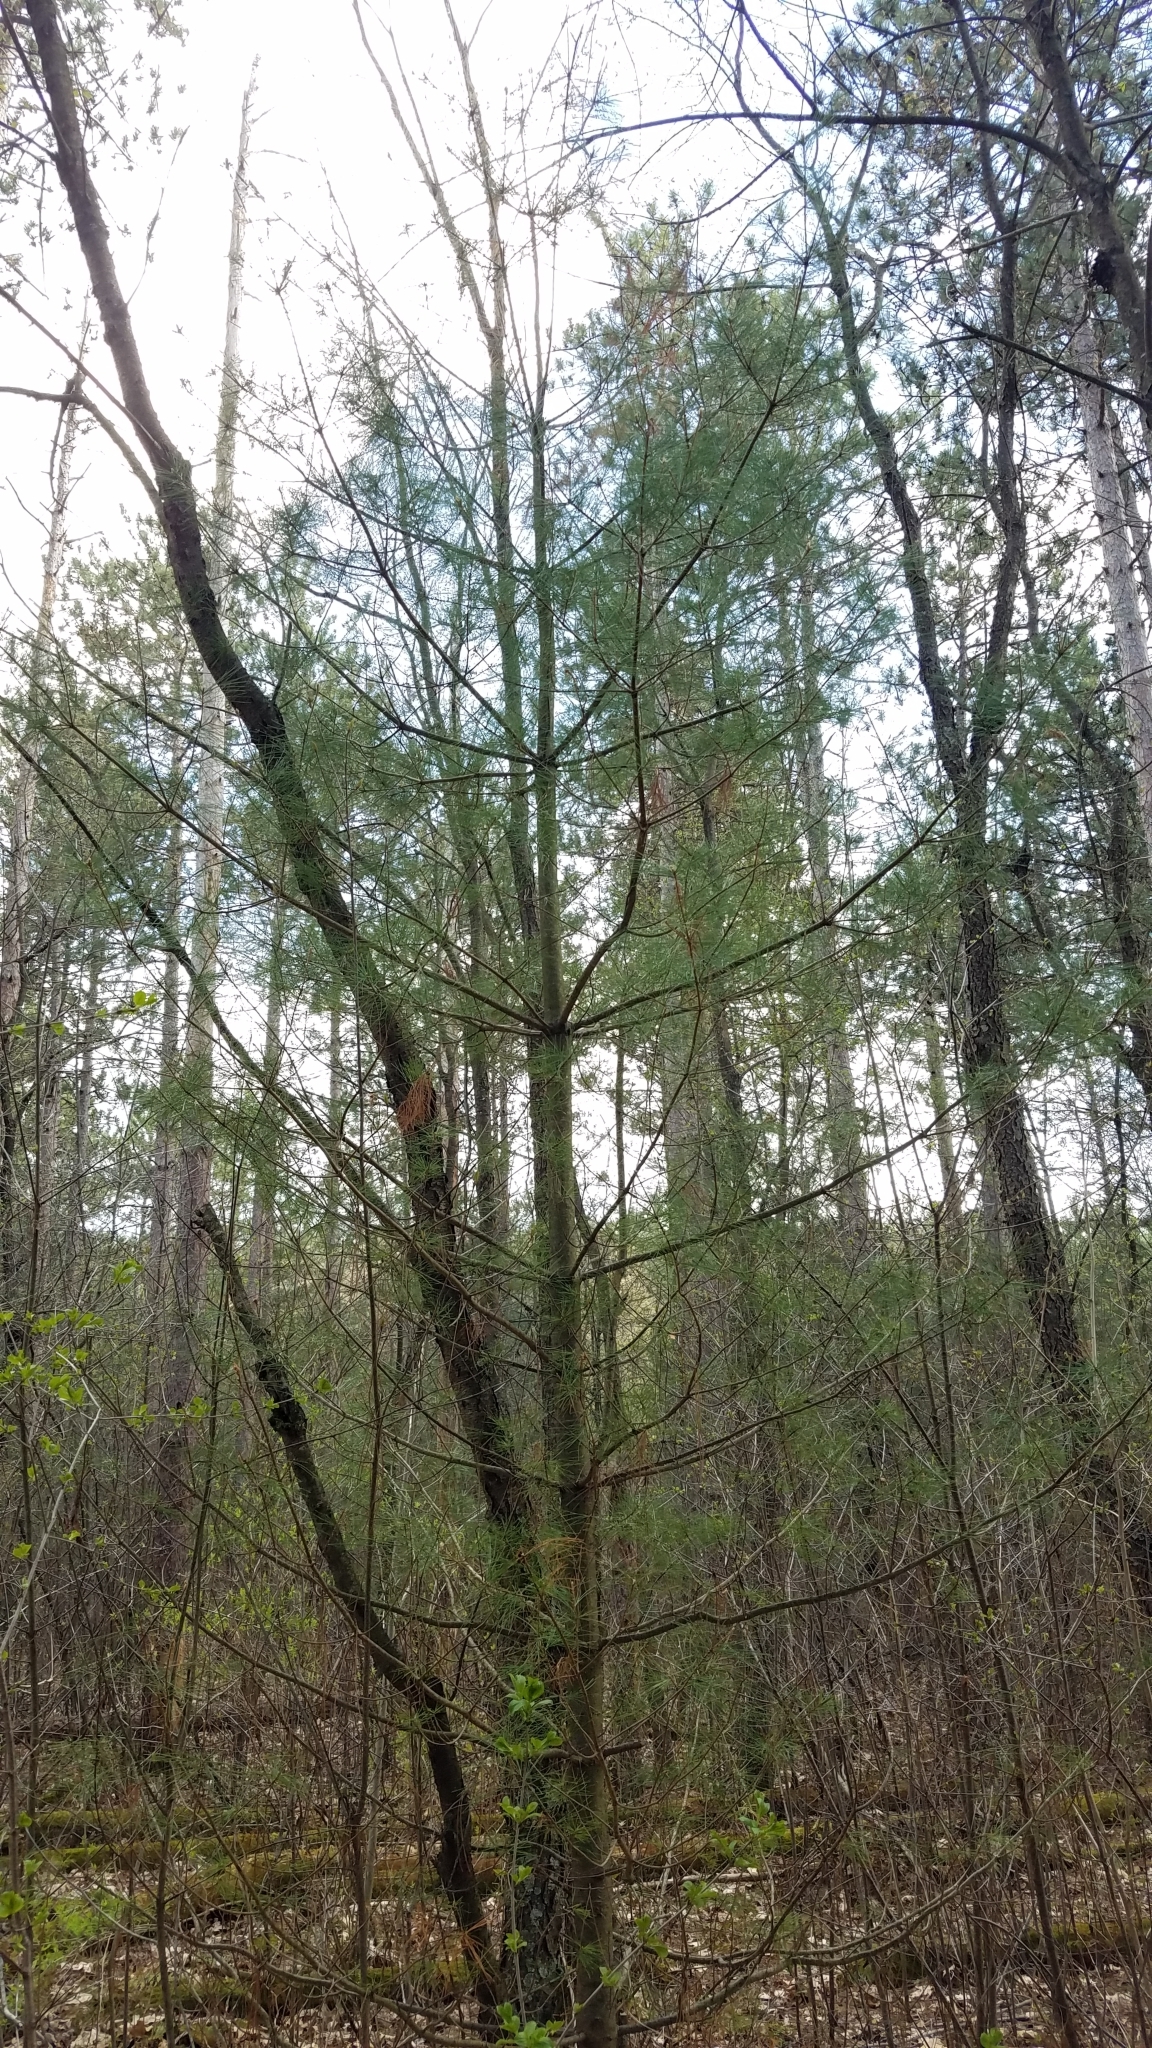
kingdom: Plantae
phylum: Tracheophyta
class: Pinopsida
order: Pinales
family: Pinaceae
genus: Pinus
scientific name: Pinus strobus
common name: Weymouth pine
